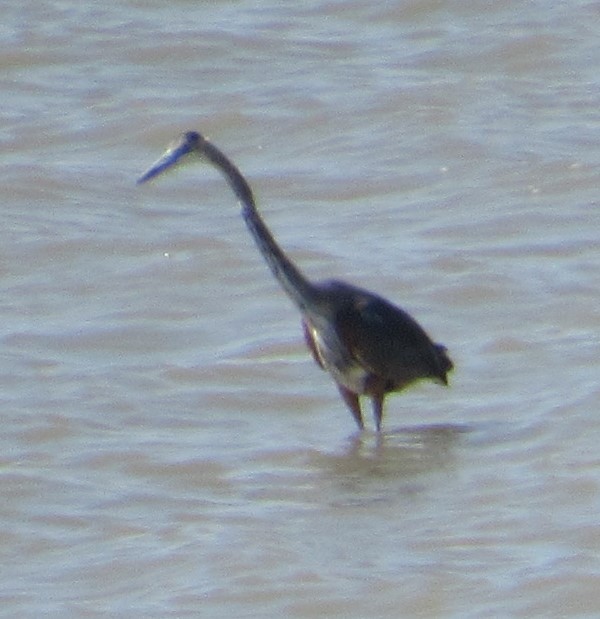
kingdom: Animalia
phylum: Chordata
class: Aves
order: Pelecaniformes
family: Ardeidae
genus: Ardea
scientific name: Ardea herodias
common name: Great blue heron
